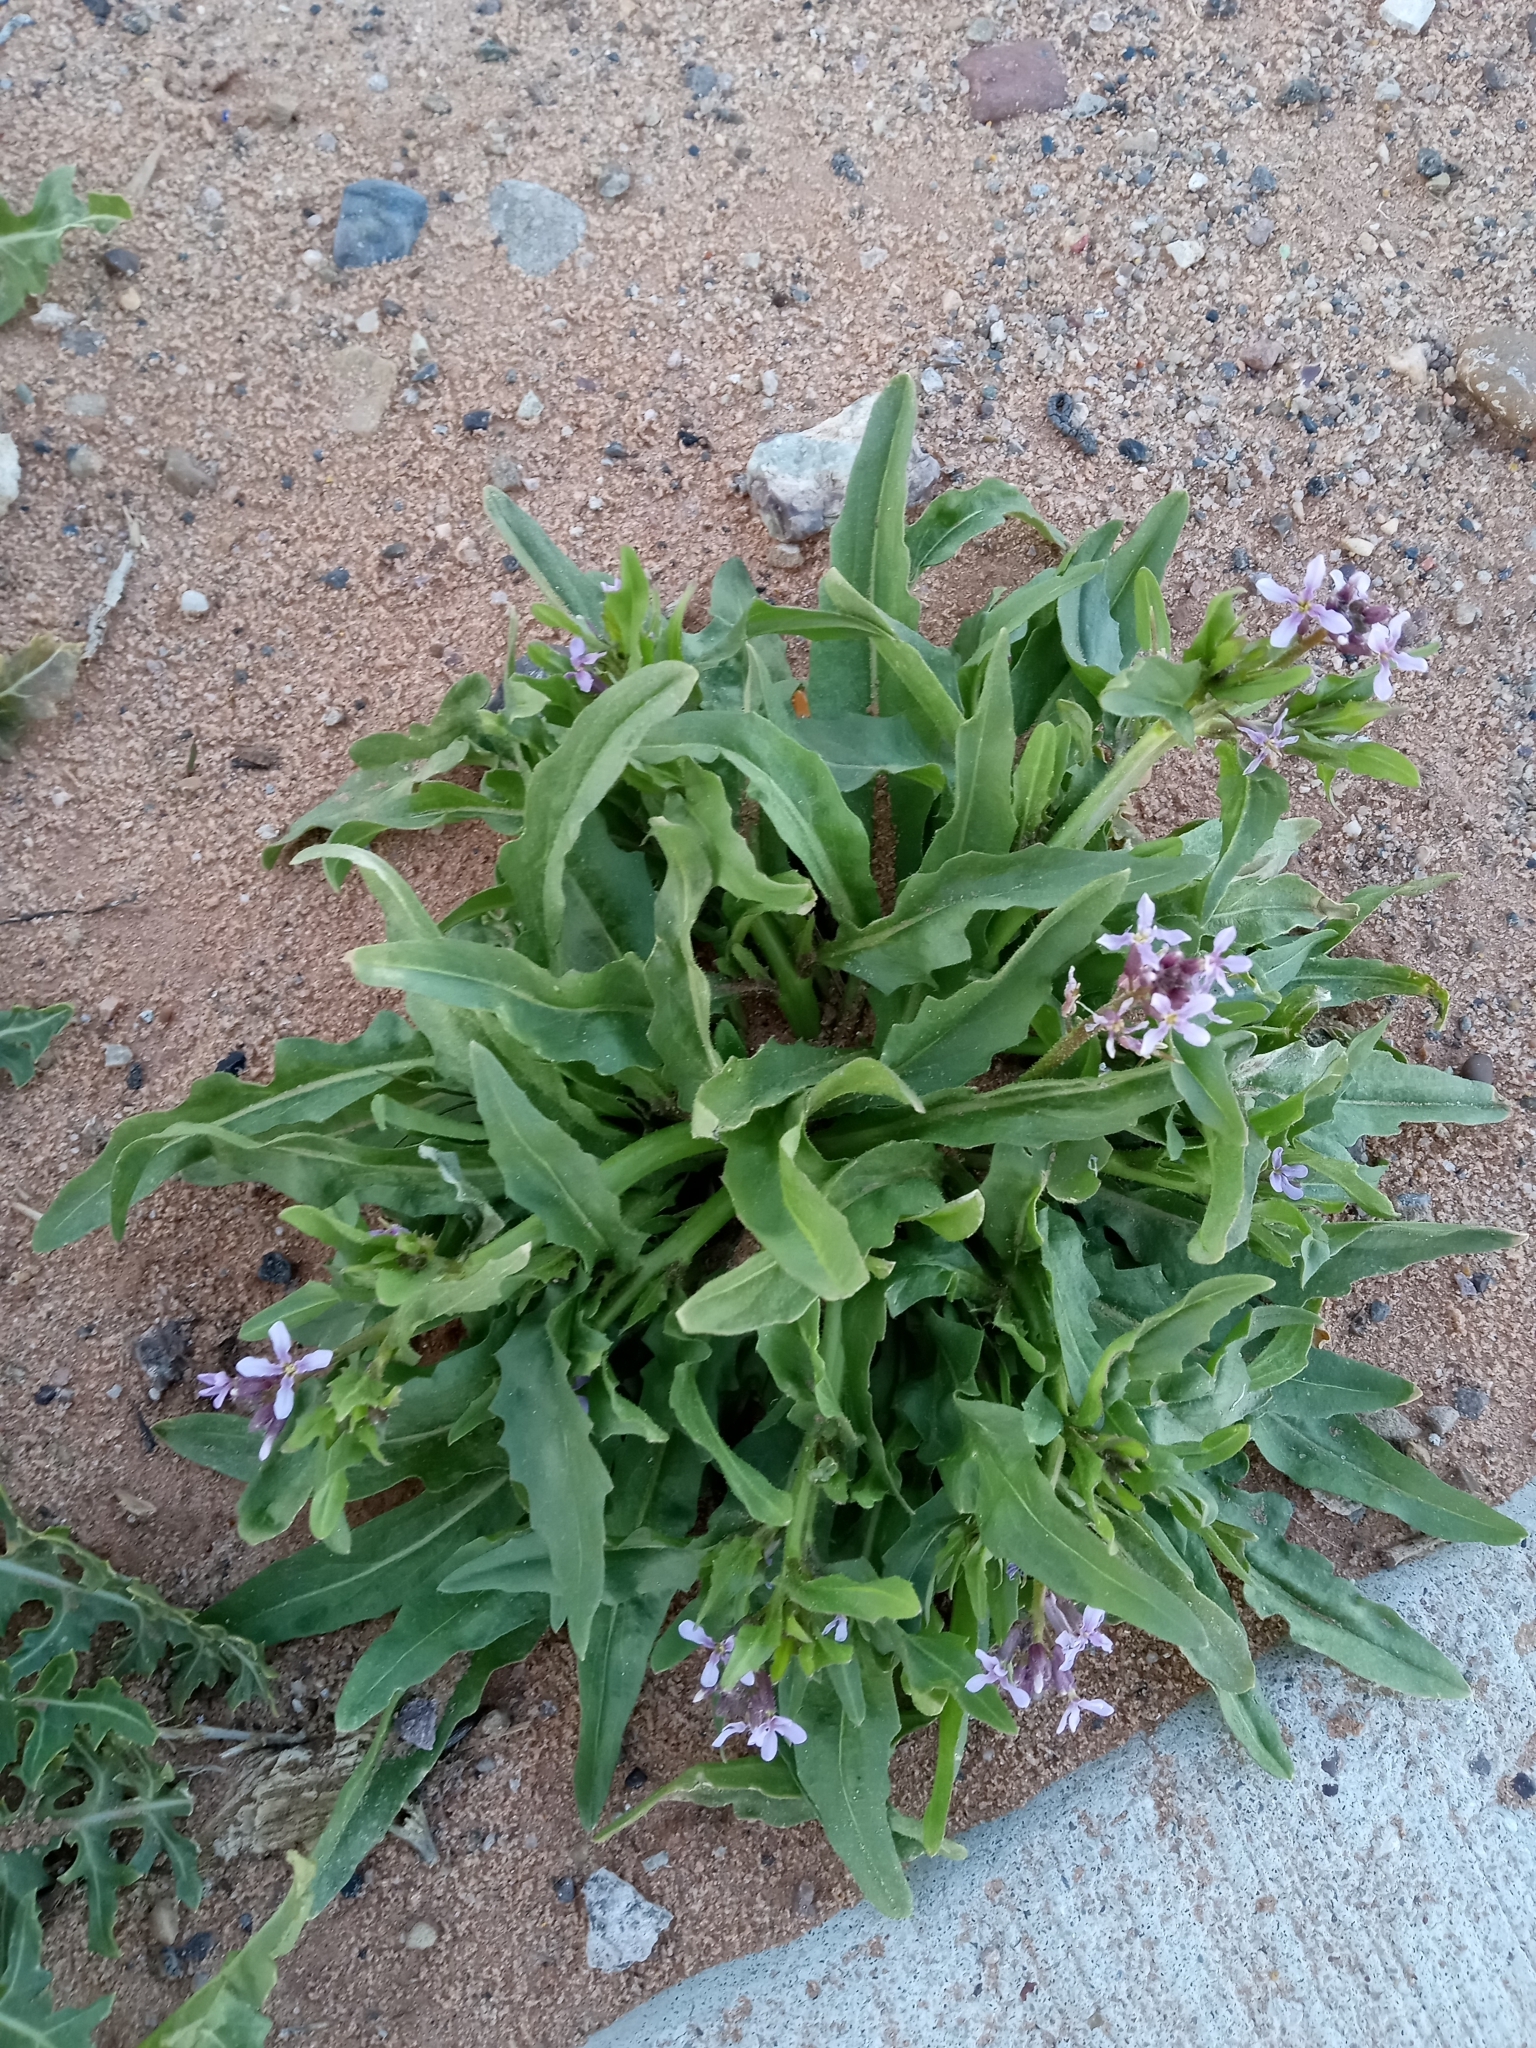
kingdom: Plantae
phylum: Tracheophyta
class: Magnoliopsida
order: Brassicales
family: Brassicaceae
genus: Chorispora
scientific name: Chorispora tenella
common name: Crossflower
